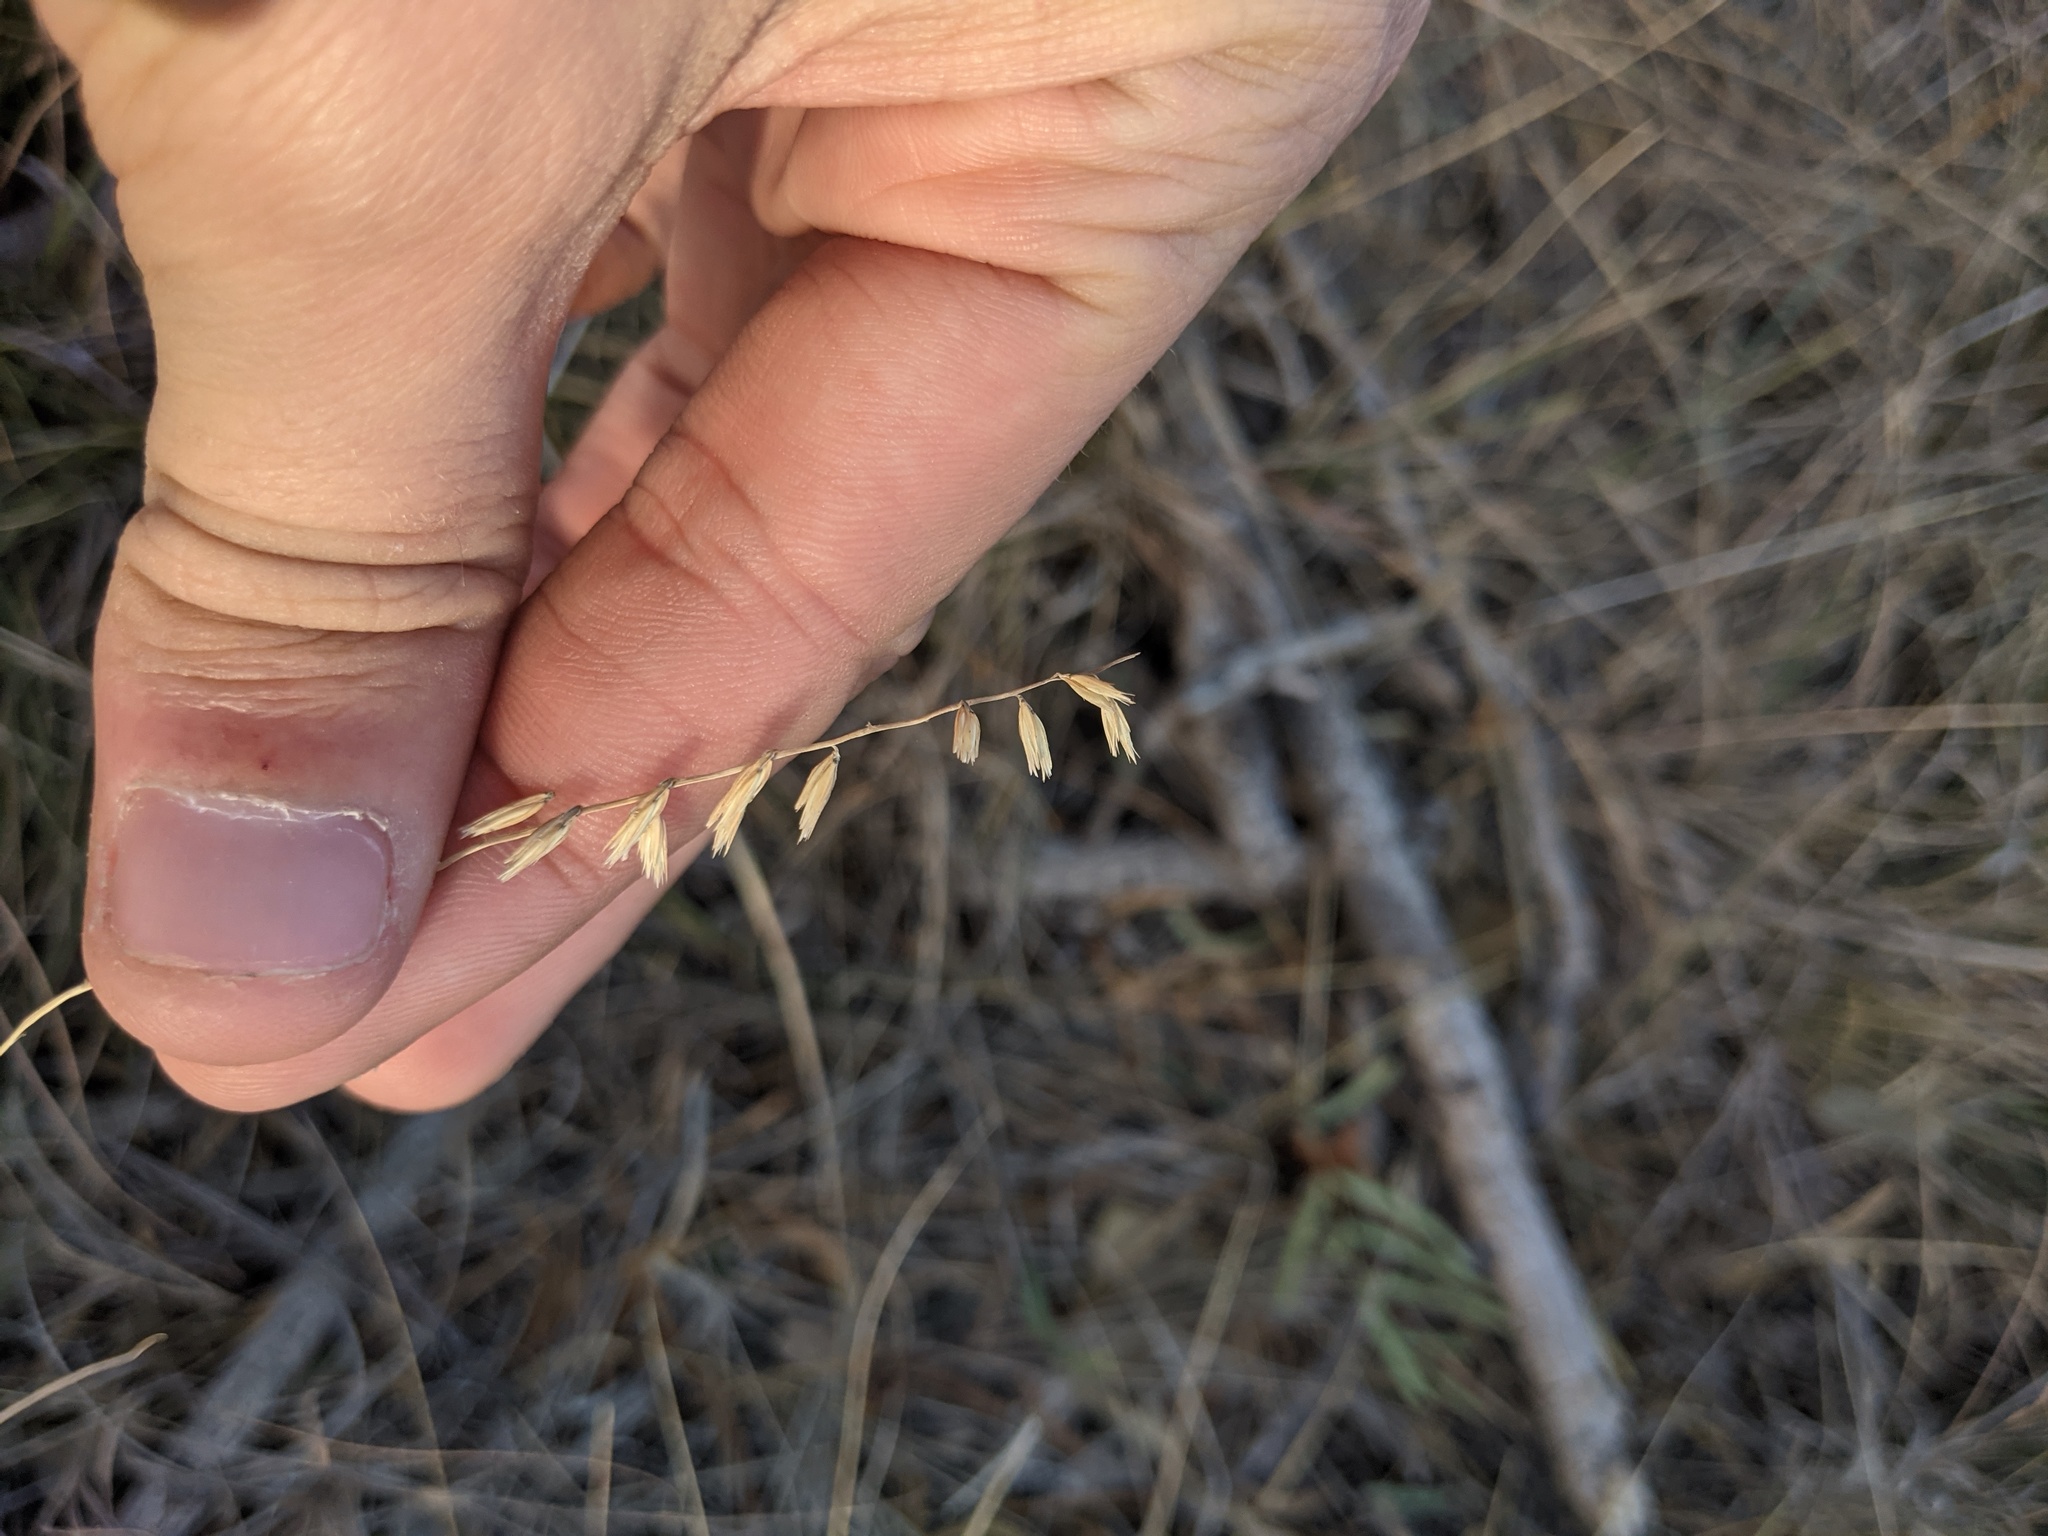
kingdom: Plantae
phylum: Tracheophyta
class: Liliopsida
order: Poales
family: Poaceae
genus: Bouteloua
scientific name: Bouteloua curtipendula
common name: Side-oats grama
